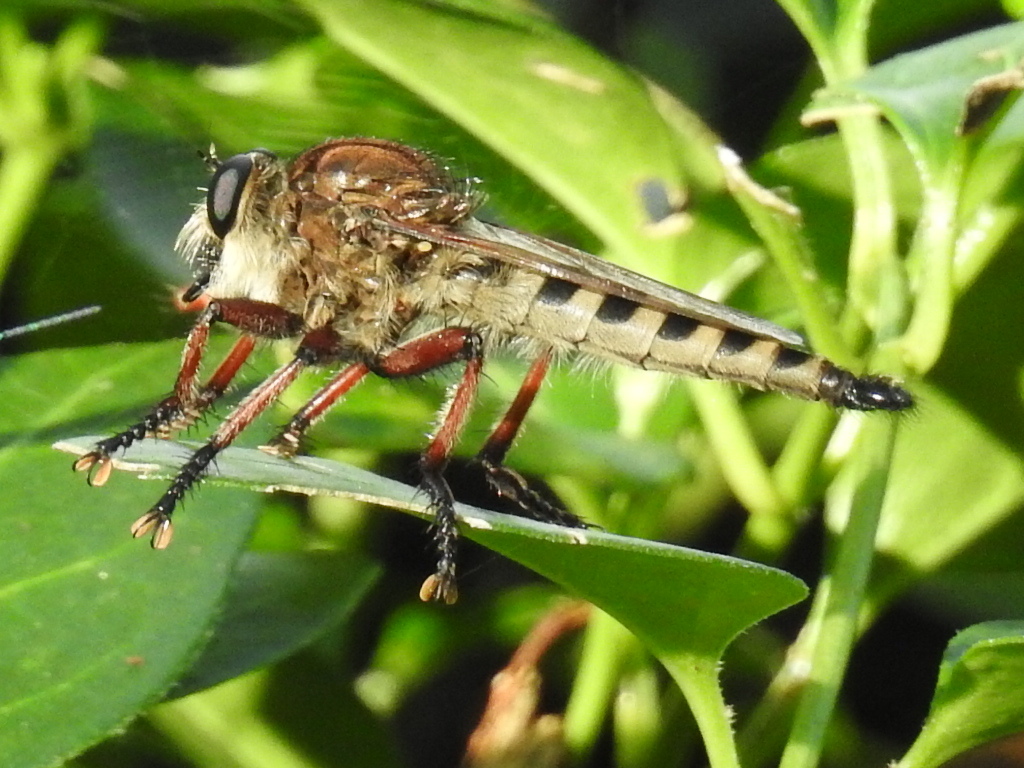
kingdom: Animalia
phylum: Arthropoda
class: Insecta
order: Diptera
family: Asilidae
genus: Promachus
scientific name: Promachus hinei
